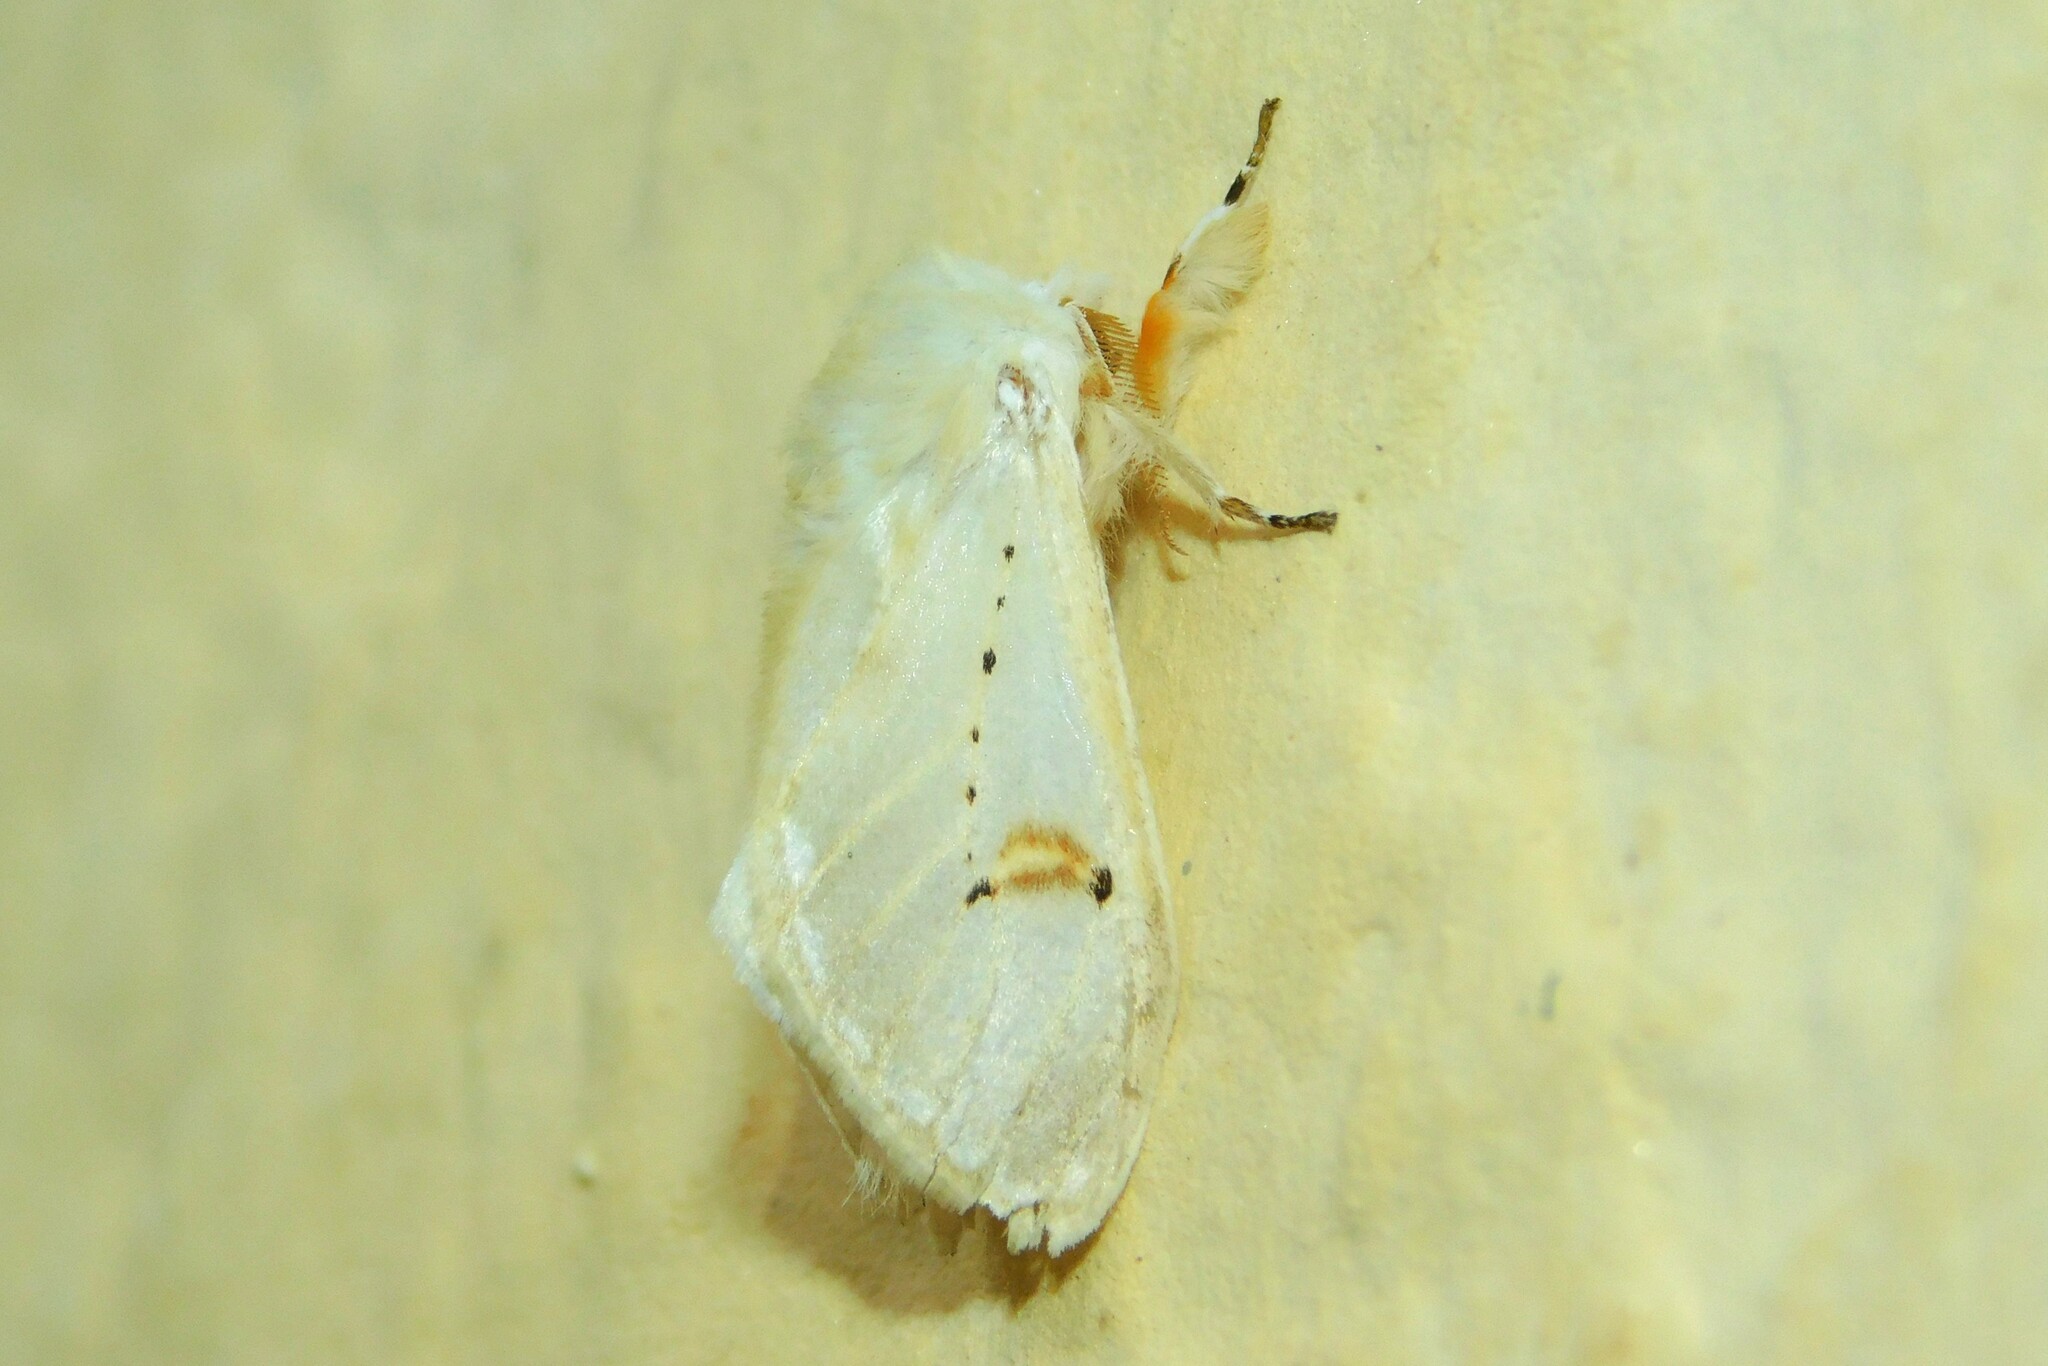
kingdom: Animalia
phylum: Arthropoda
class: Insecta
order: Lepidoptera
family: Erebidae
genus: Naroma
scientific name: Naroma varipes
